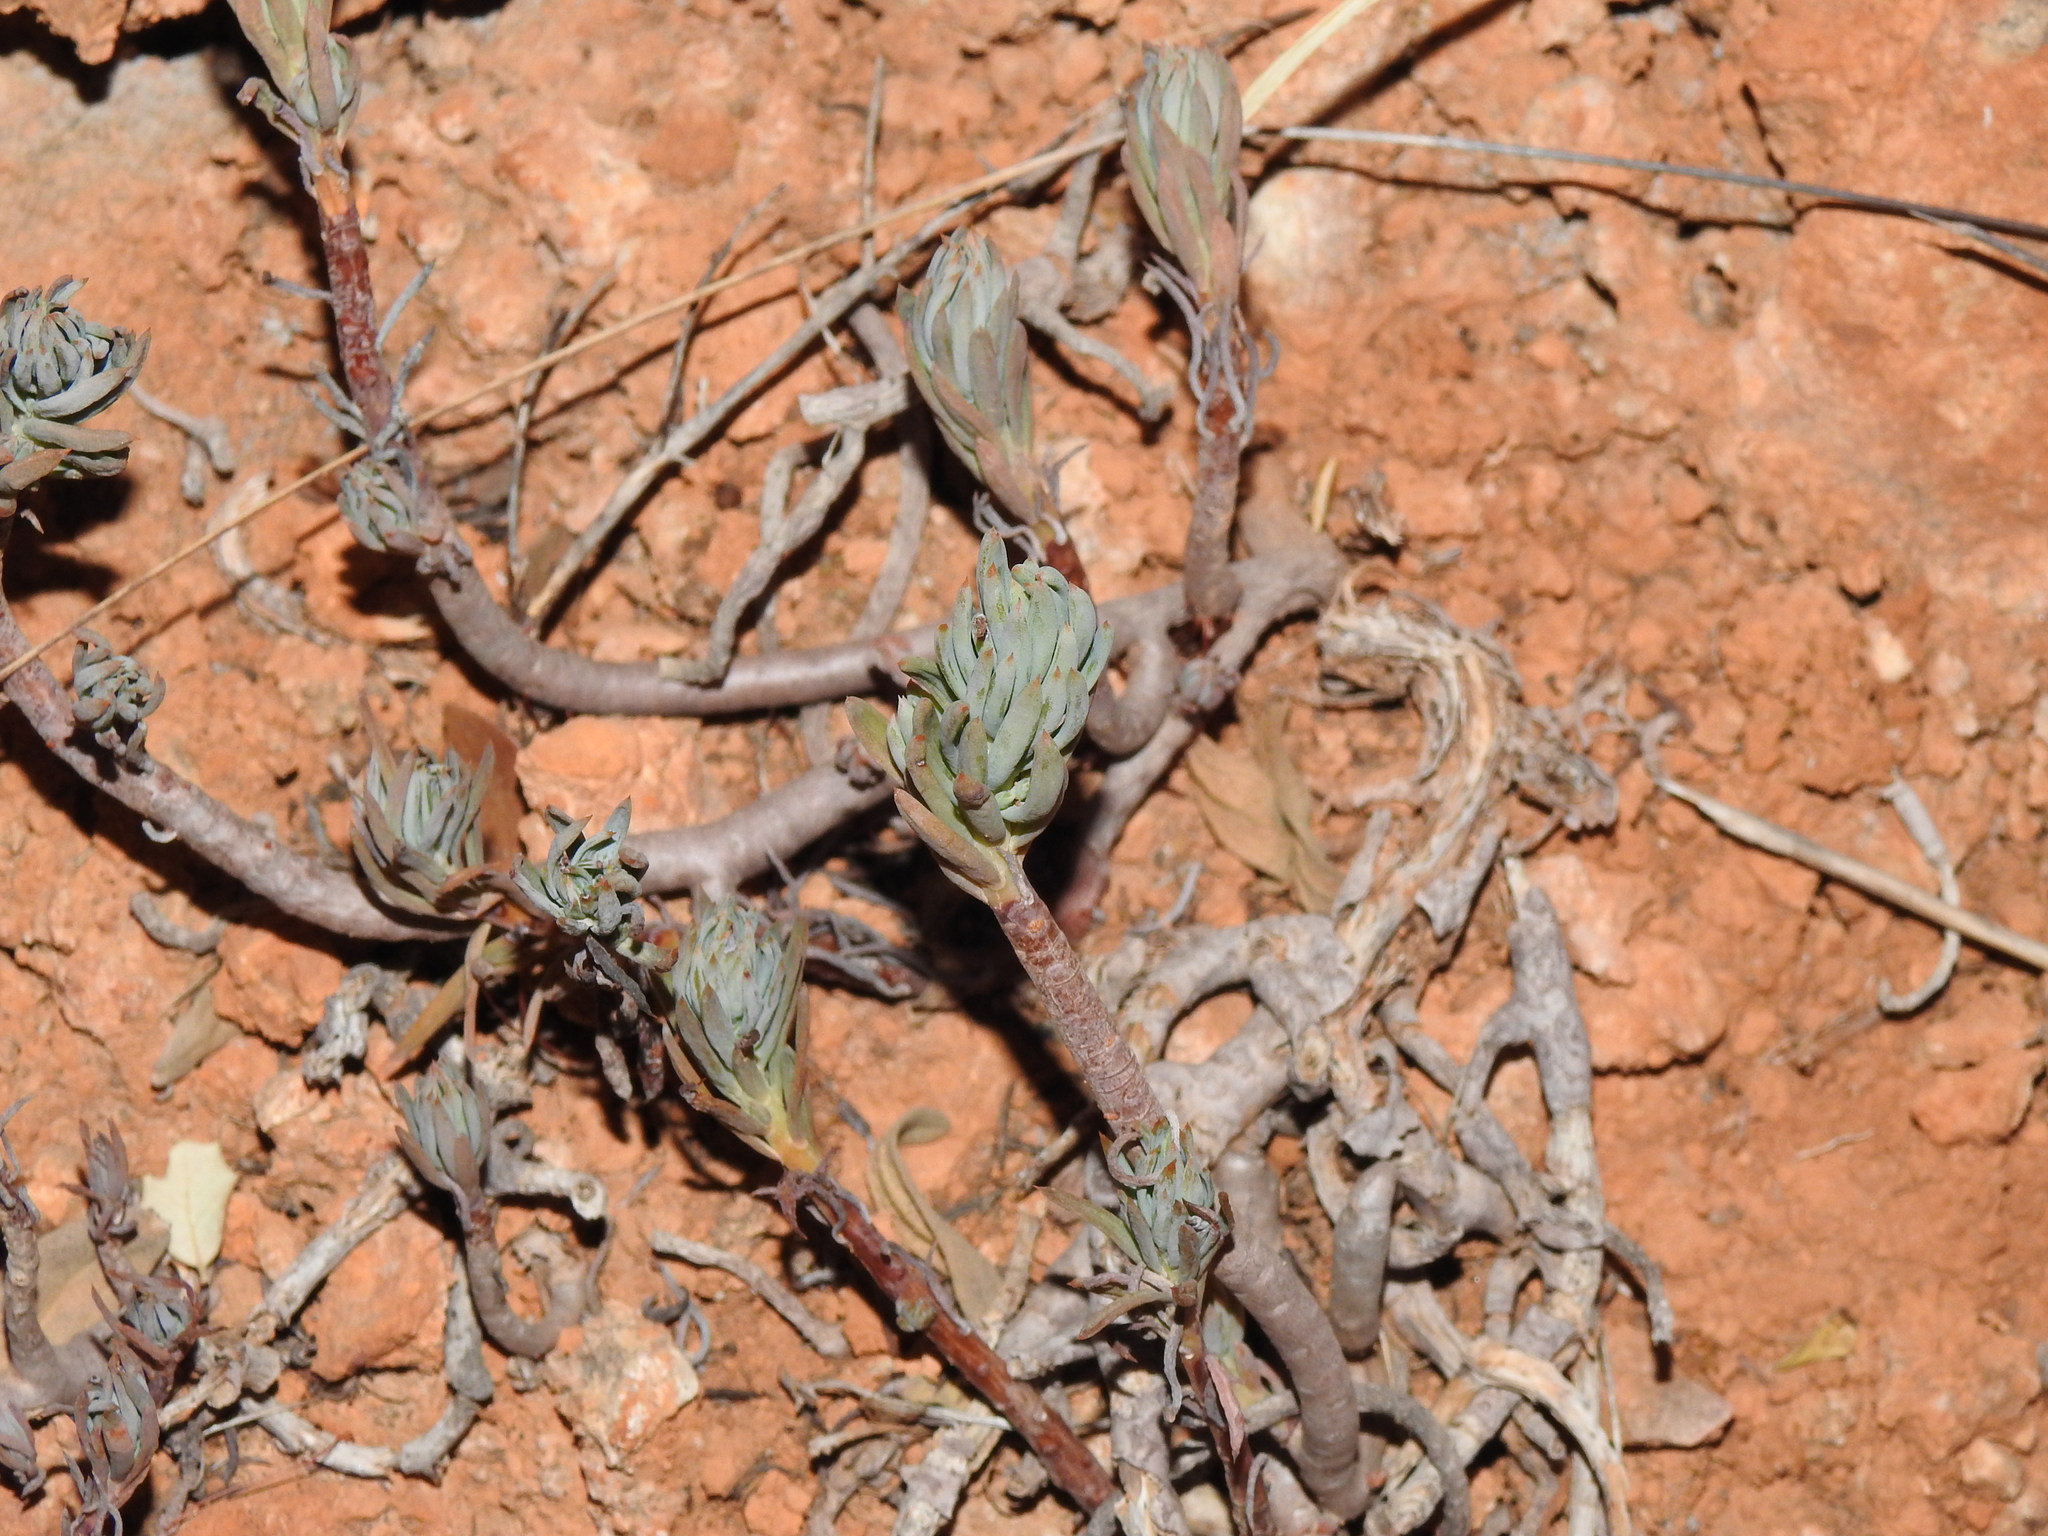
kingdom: Plantae
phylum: Tracheophyta
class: Magnoliopsida
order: Saxifragales
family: Crassulaceae
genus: Petrosedum
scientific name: Petrosedum sediforme
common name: Pale stonecrop
